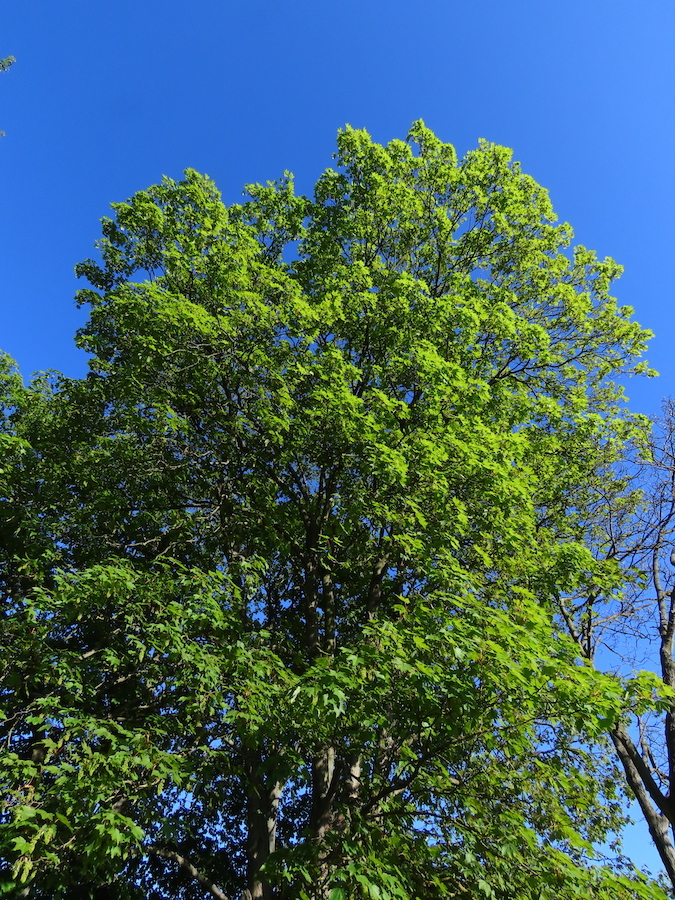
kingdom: Plantae
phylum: Tracheophyta
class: Magnoliopsida
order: Sapindales
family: Sapindaceae
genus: Acer
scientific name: Acer pseudoplatanus
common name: Sycamore
